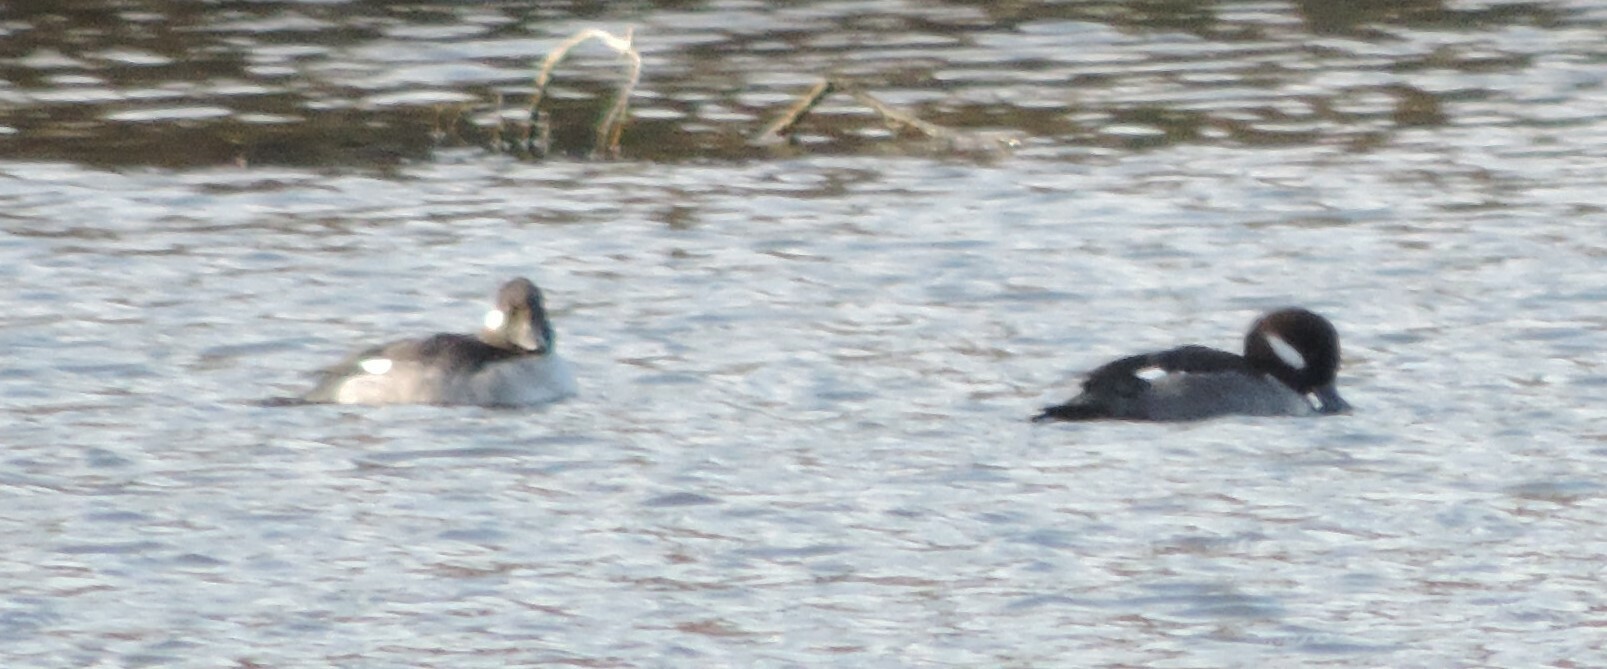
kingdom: Animalia
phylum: Chordata
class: Aves
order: Anseriformes
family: Anatidae
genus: Bucephala
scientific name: Bucephala albeola
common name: Bufflehead
